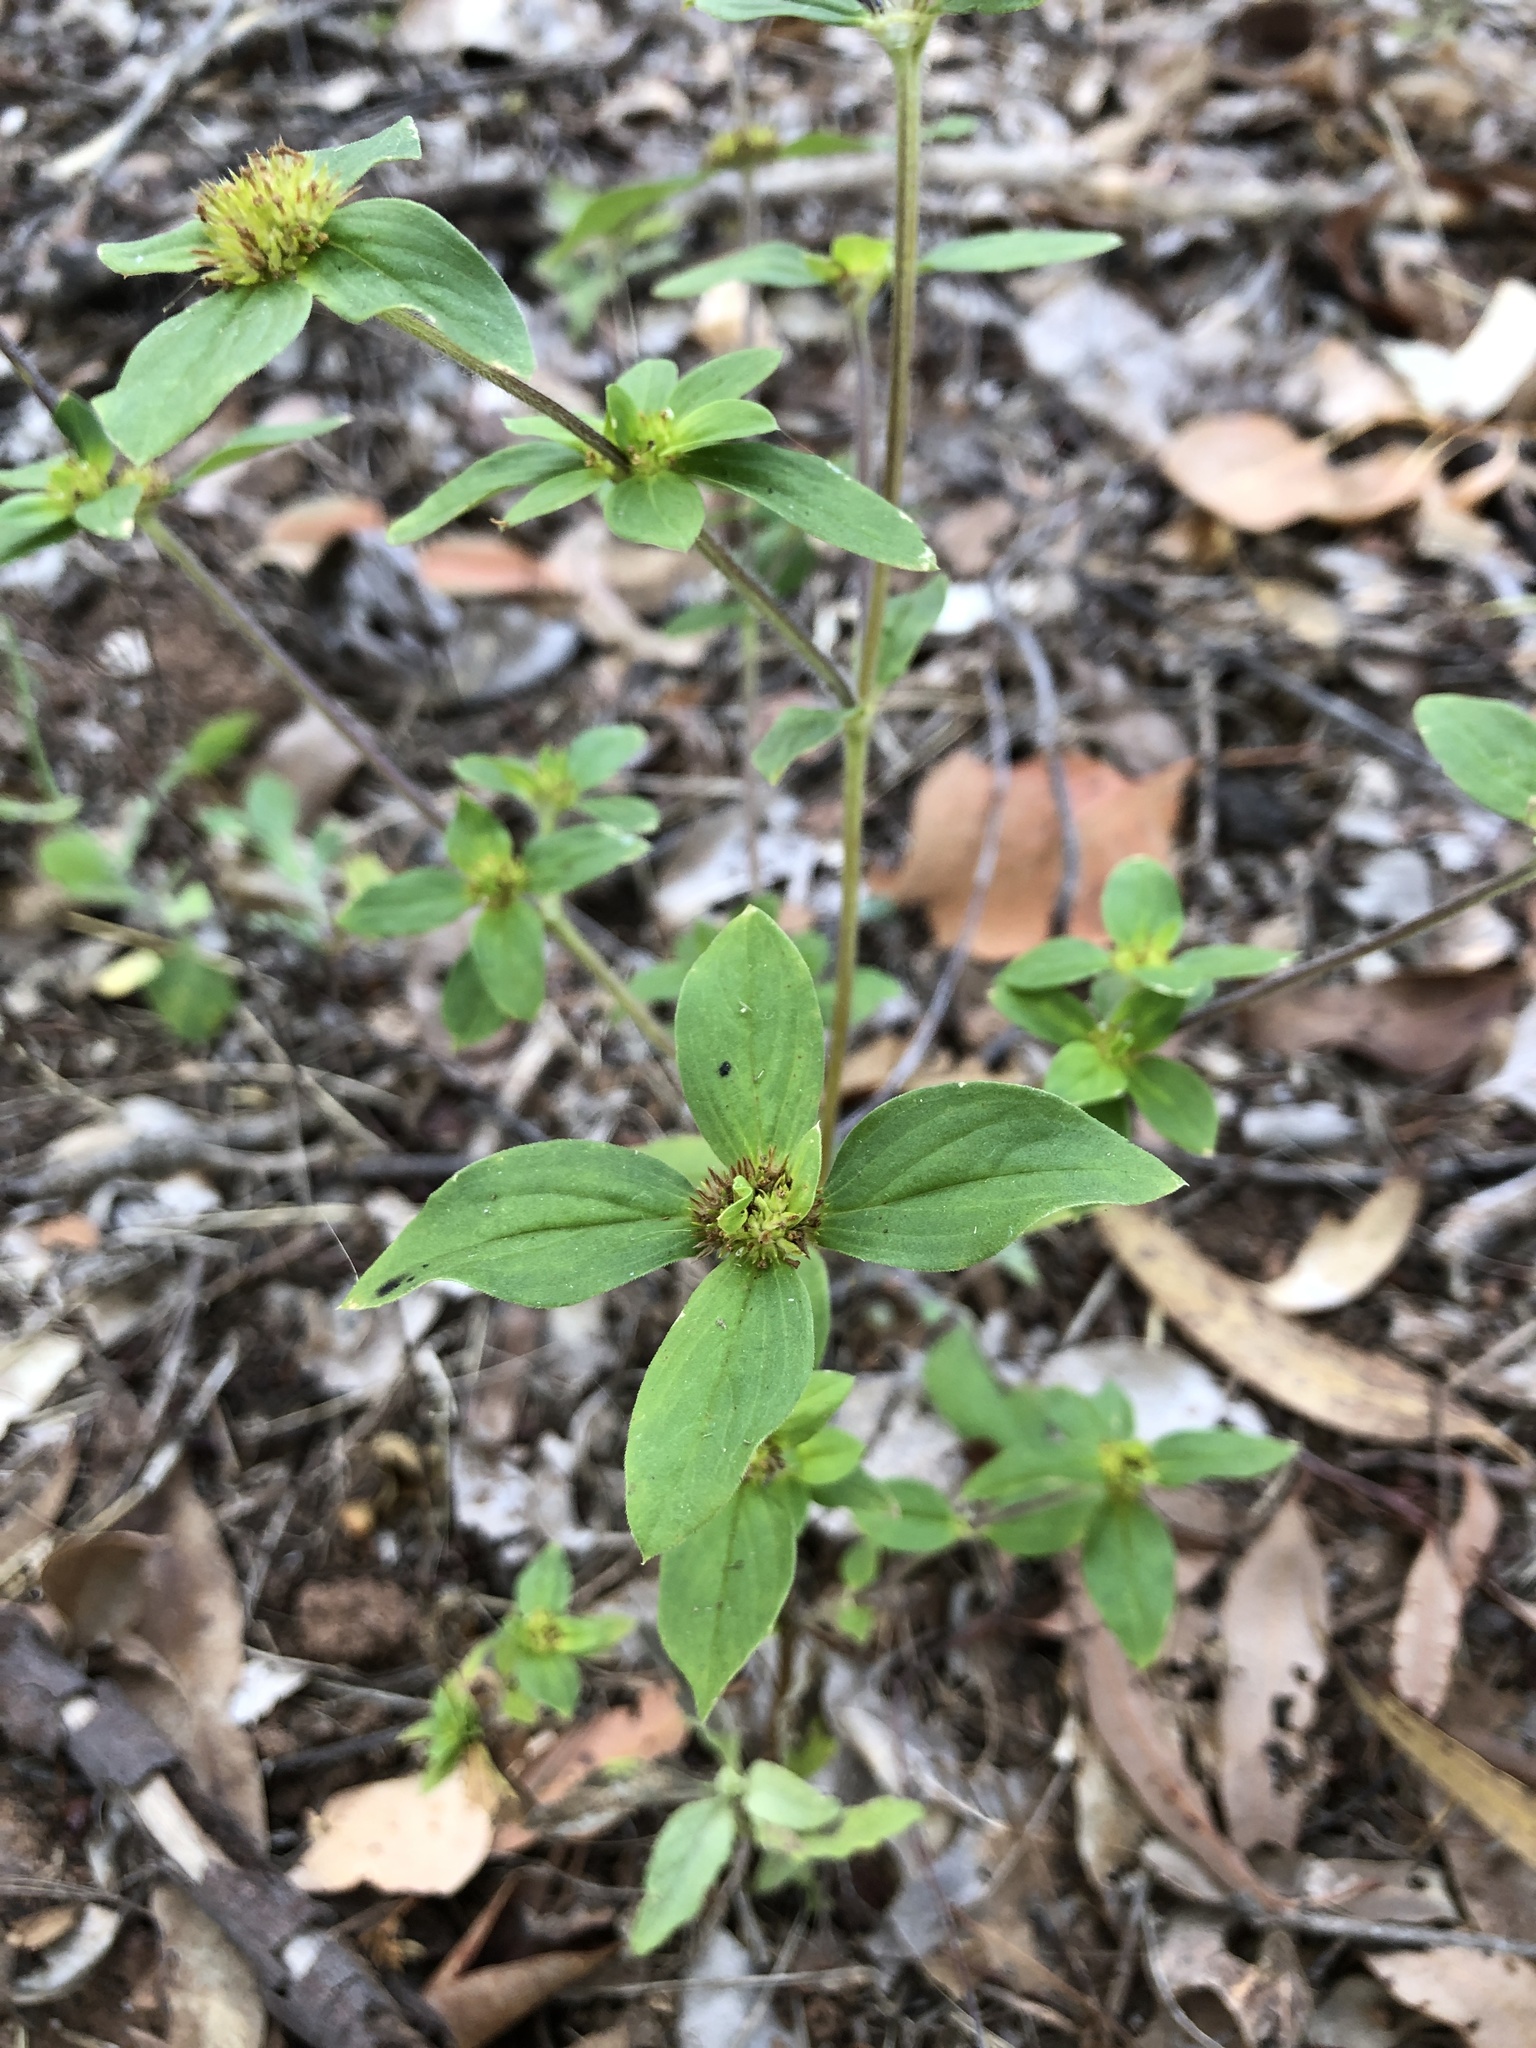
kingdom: Plantae
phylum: Tracheophyta
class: Magnoliopsida
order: Gentianales
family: Rubiaceae
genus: Mitracarpus
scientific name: Mitracarpus hirtus
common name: Tropical girdlepod
